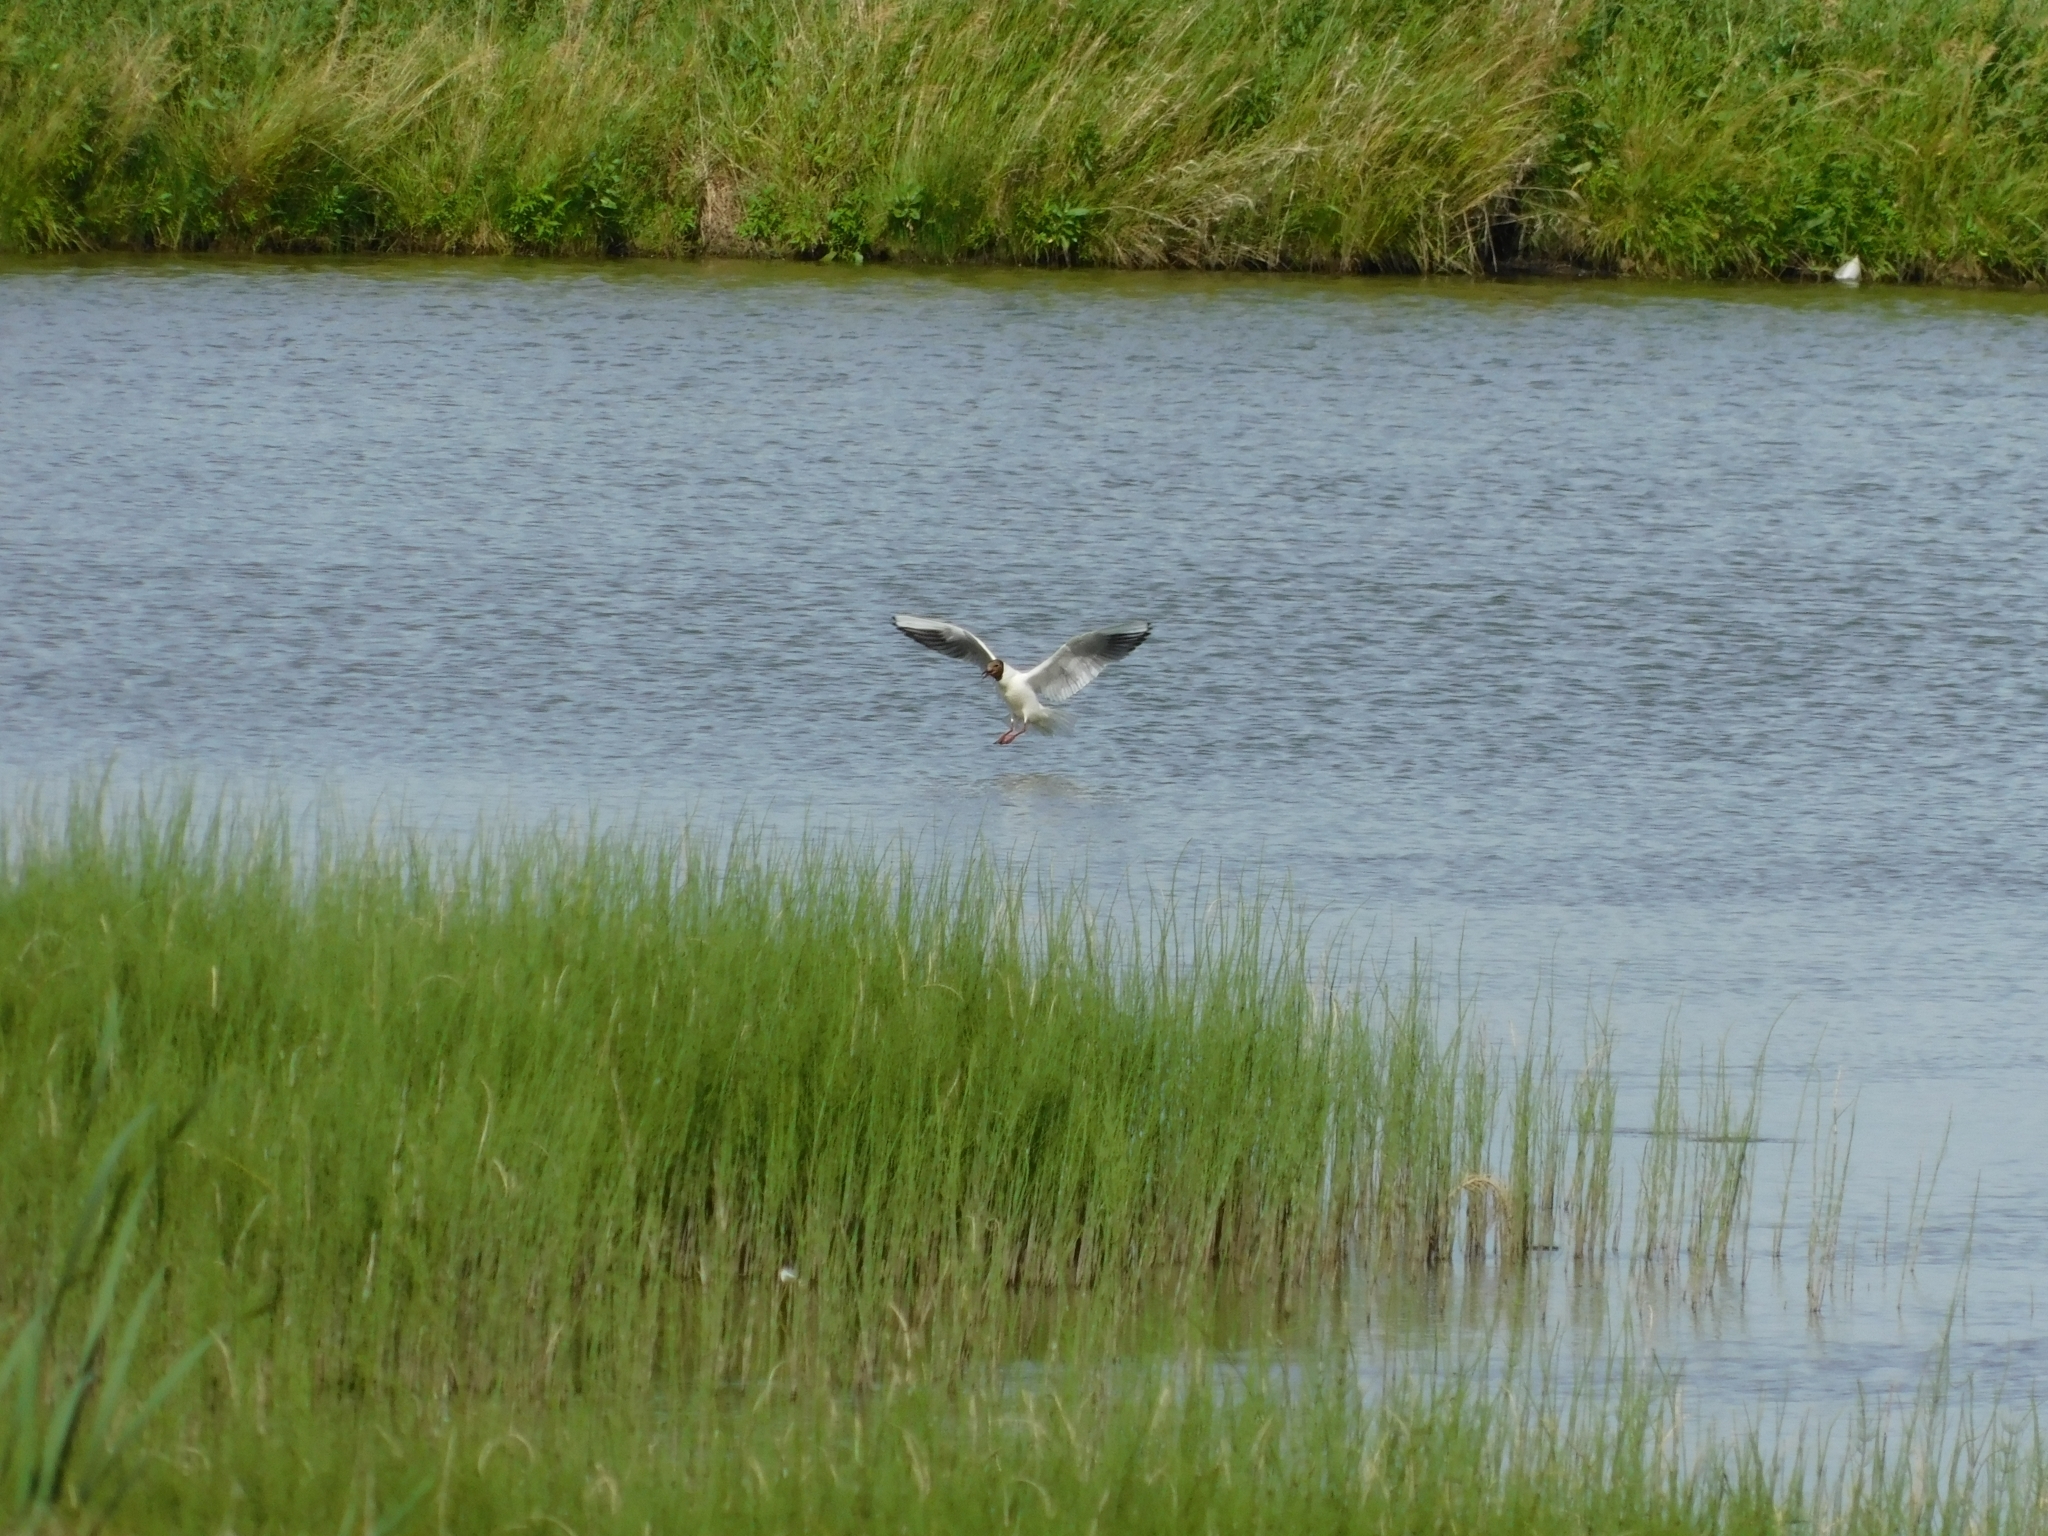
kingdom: Animalia
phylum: Chordata
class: Aves
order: Charadriiformes
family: Laridae
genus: Chroicocephalus
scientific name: Chroicocephalus ridibundus
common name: Black-headed gull
